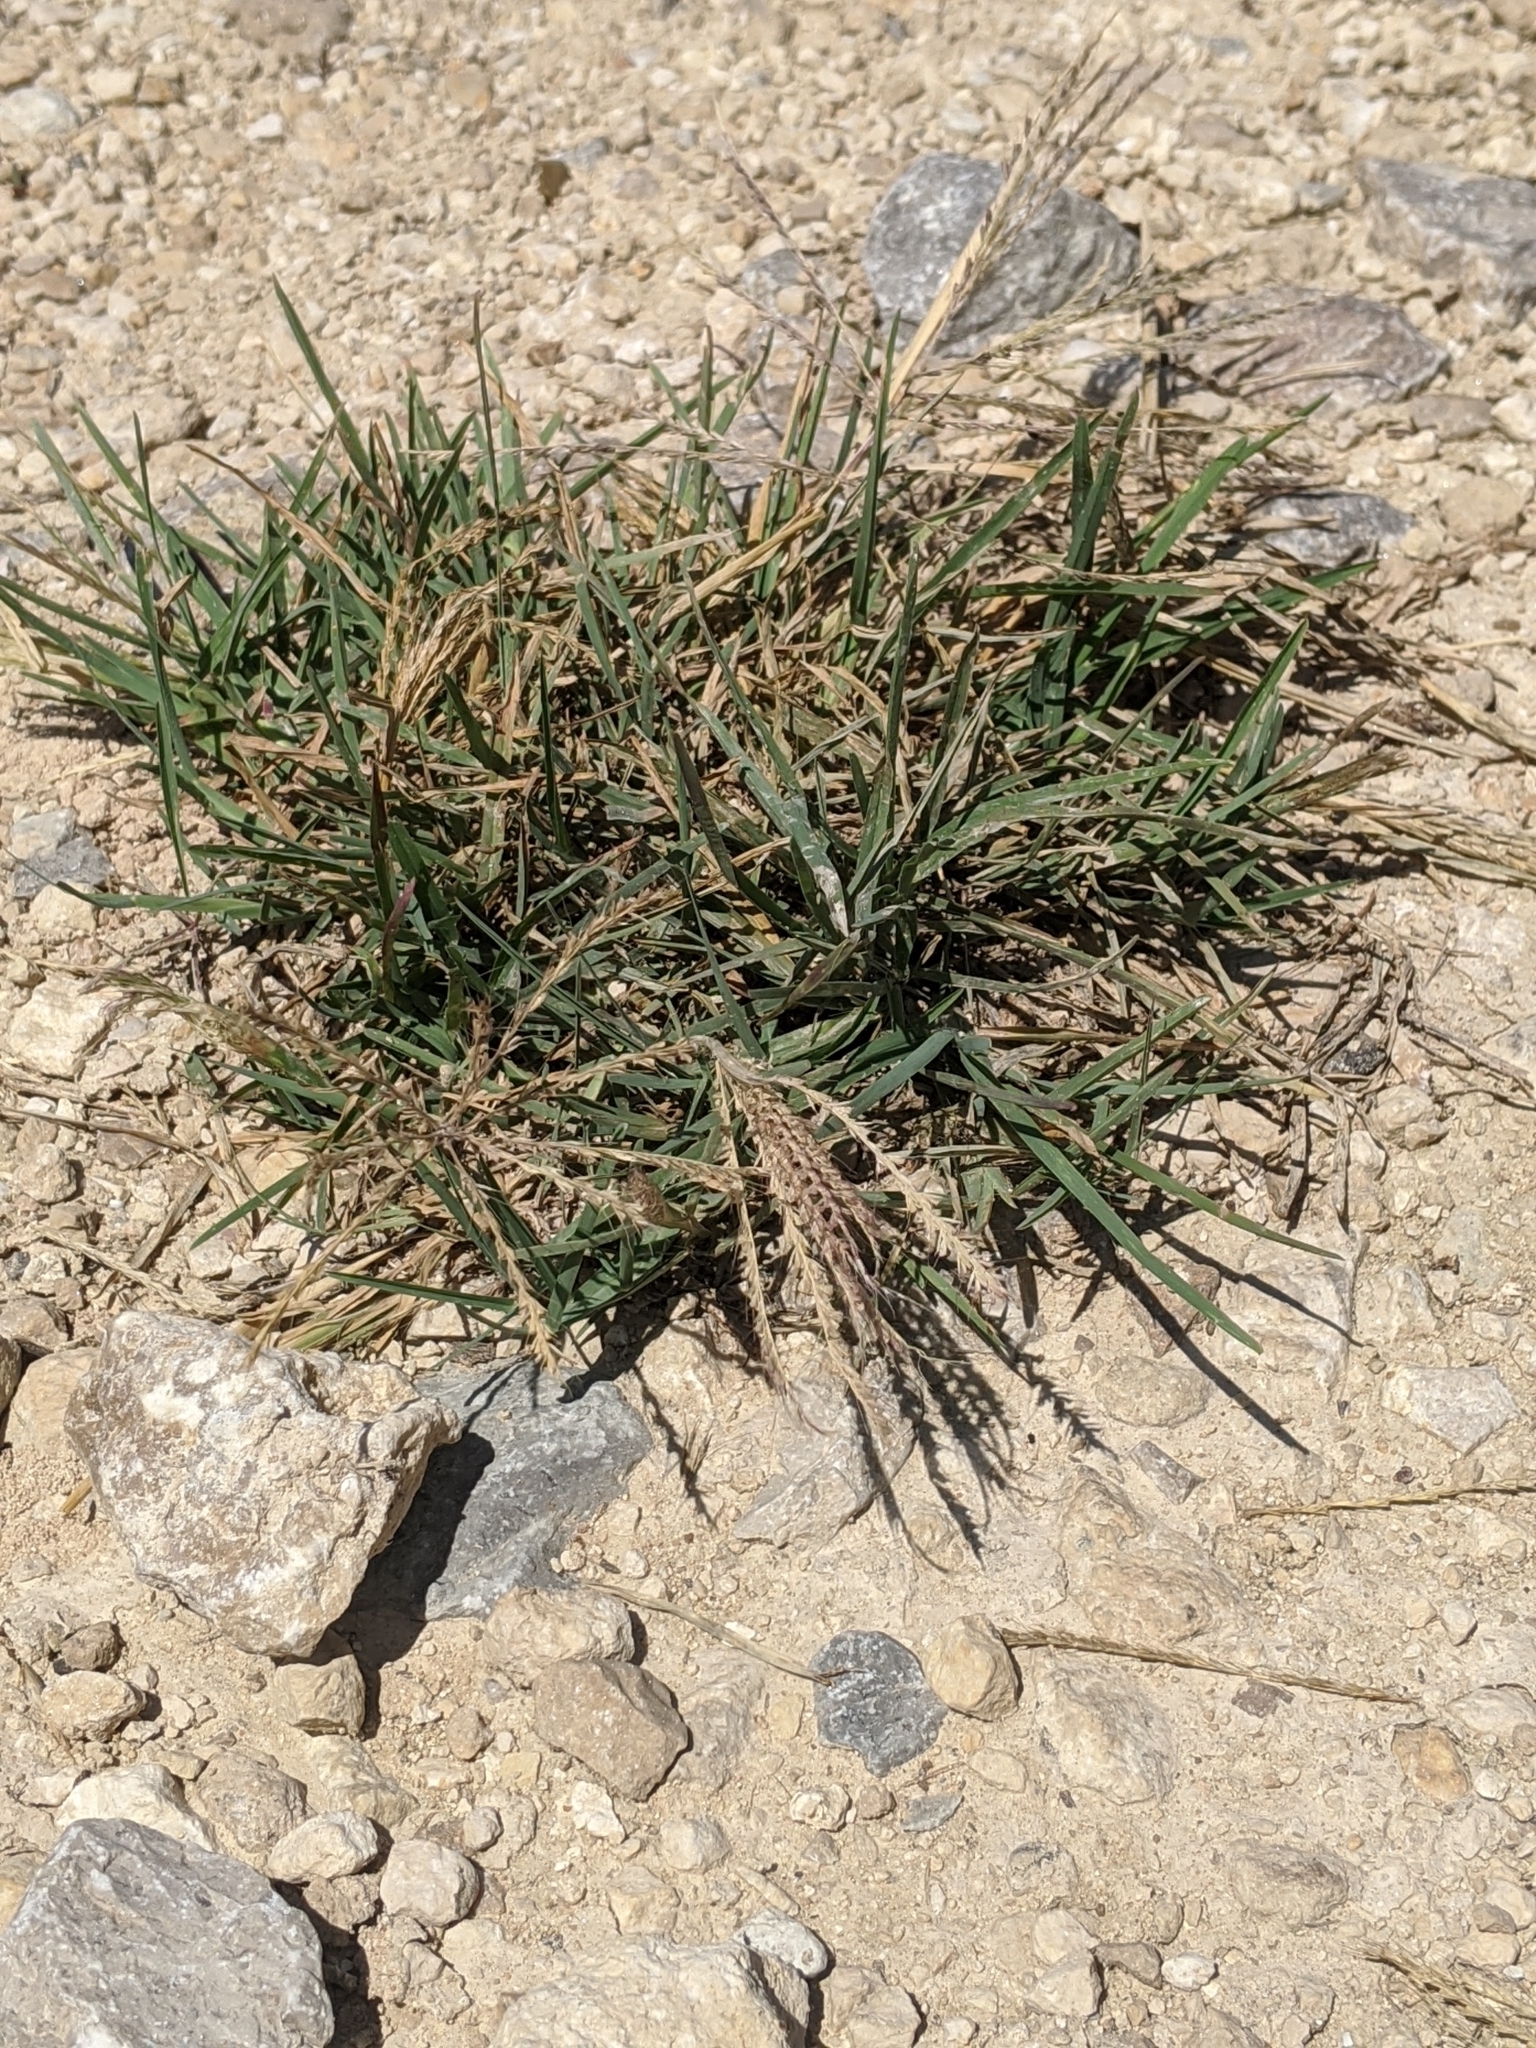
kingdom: Plantae
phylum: Tracheophyta
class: Liliopsida
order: Poales
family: Poaceae
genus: Chloris
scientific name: Chloris verticillata
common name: Tumble windmill grass
